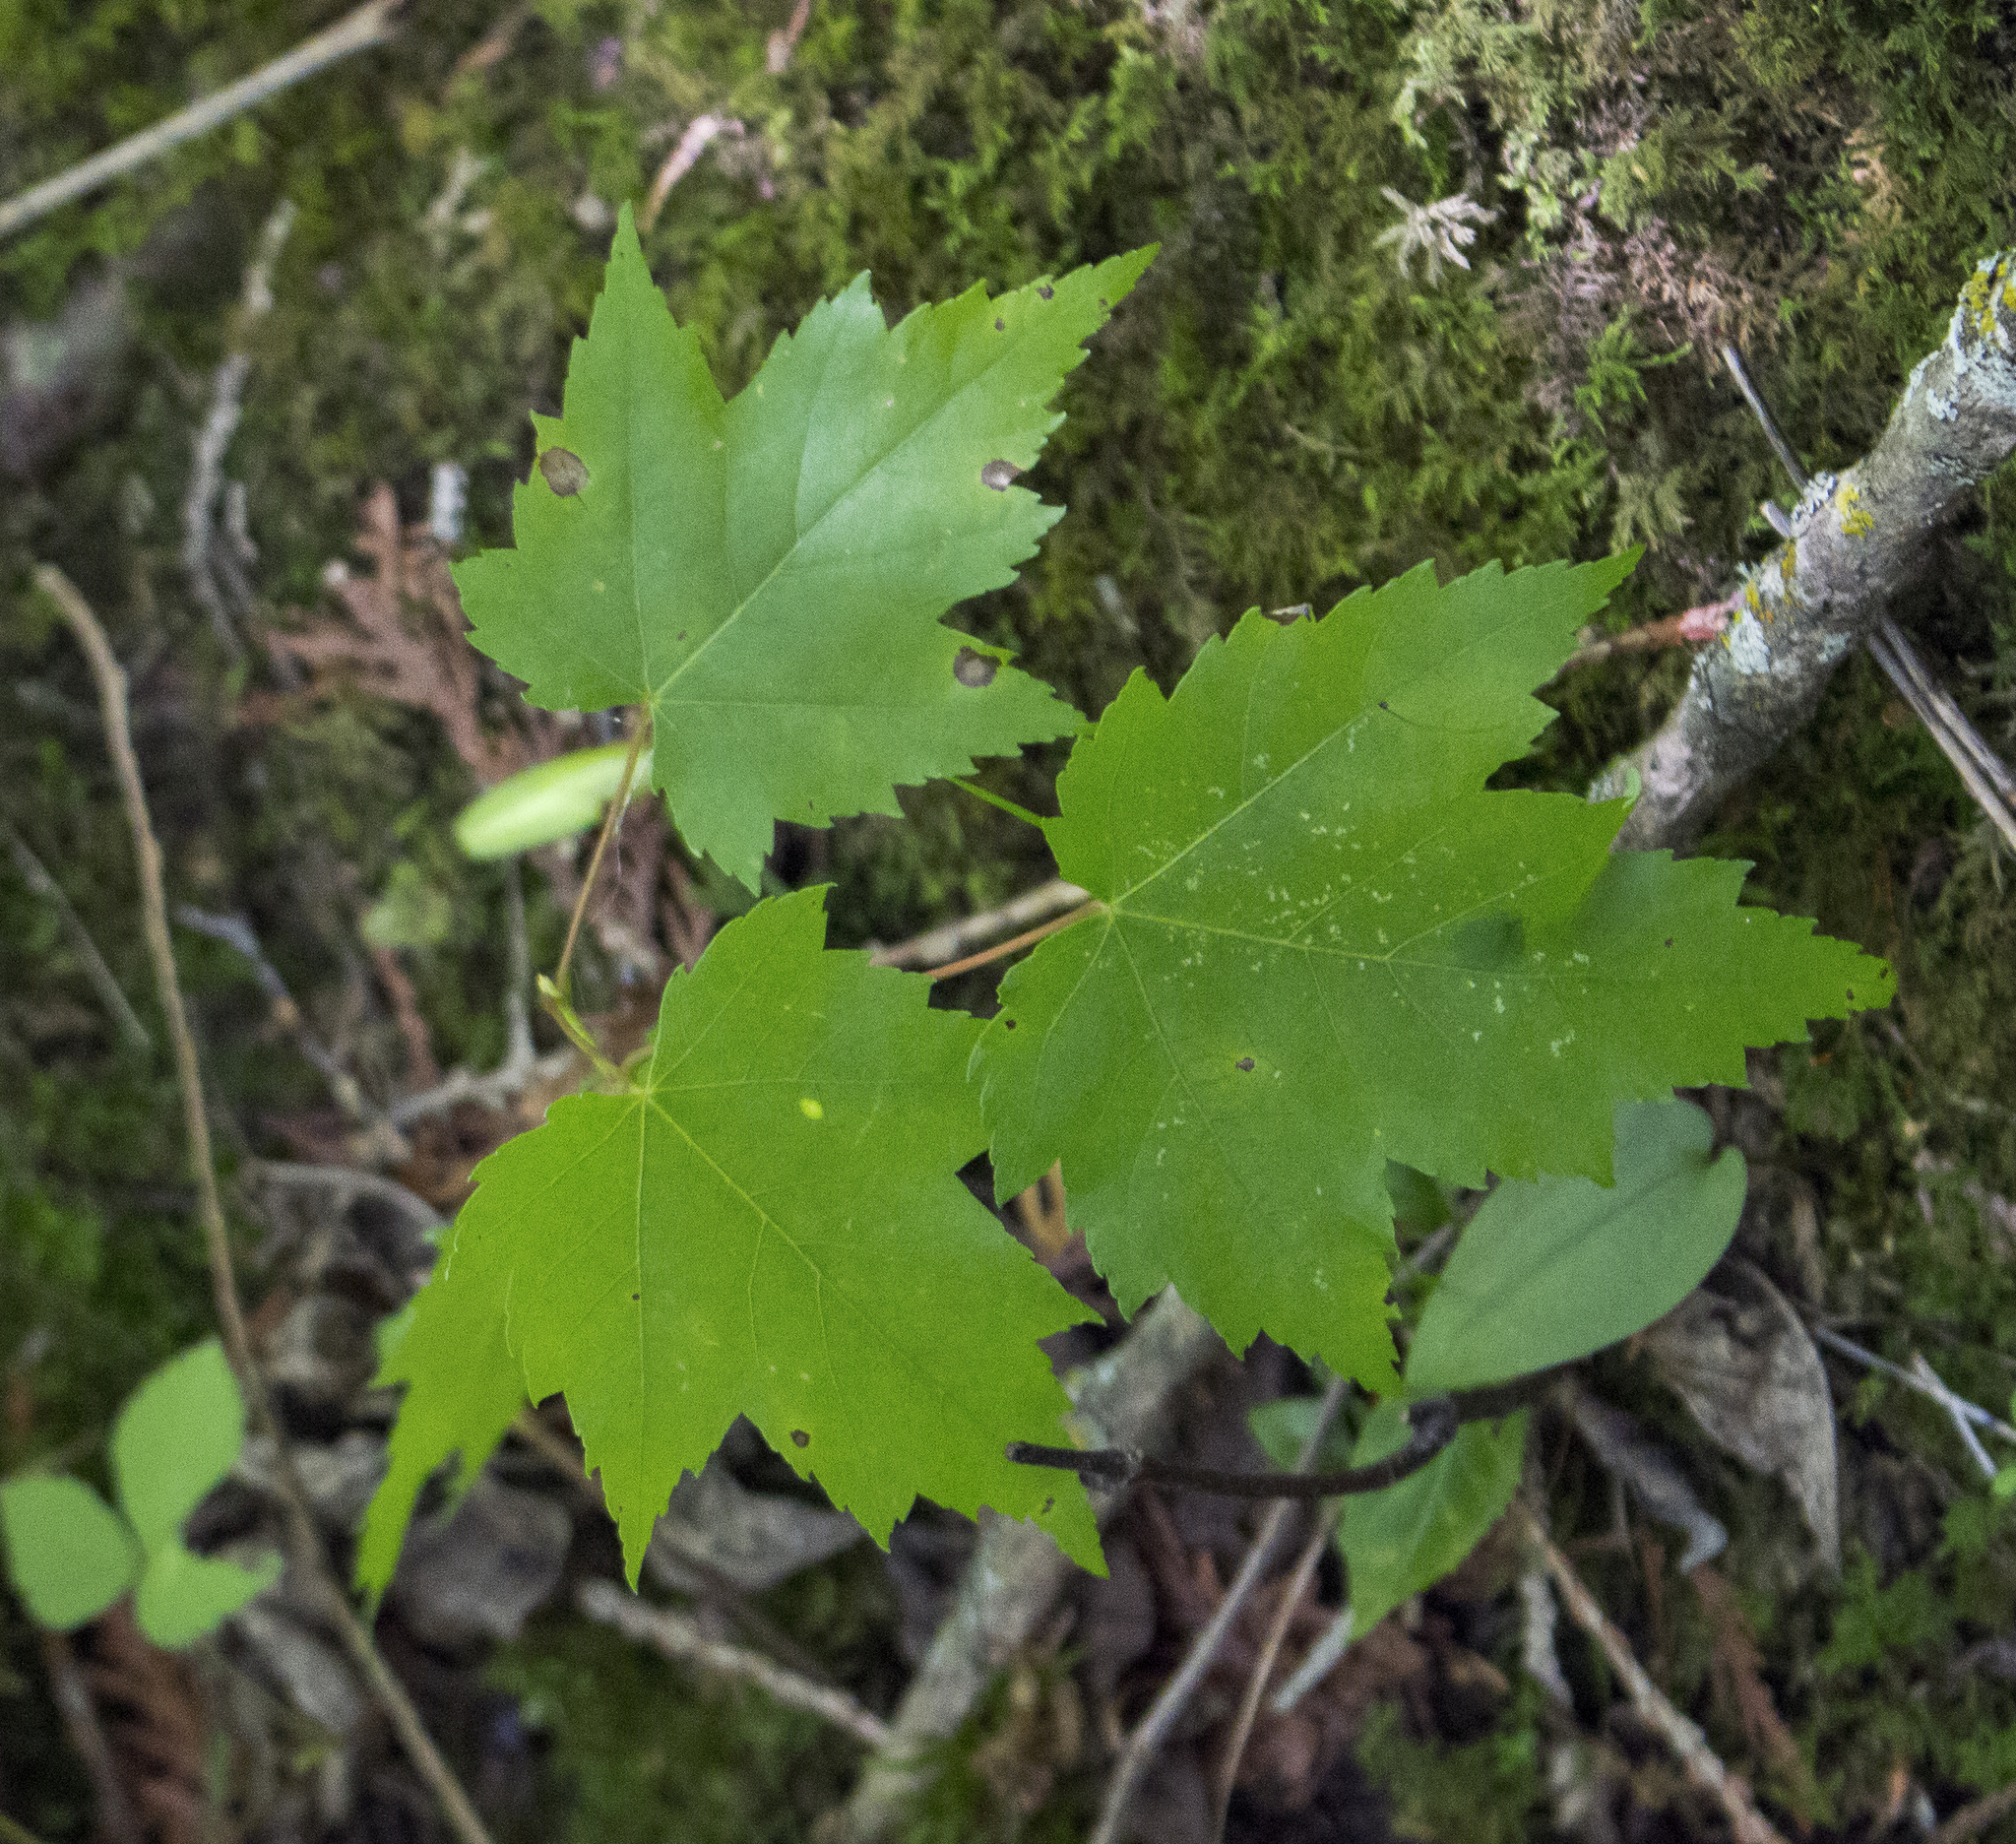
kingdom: Plantae
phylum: Tracheophyta
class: Magnoliopsida
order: Sapindales
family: Sapindaceae
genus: Acer
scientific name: Acer rubrum
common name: Red maple
